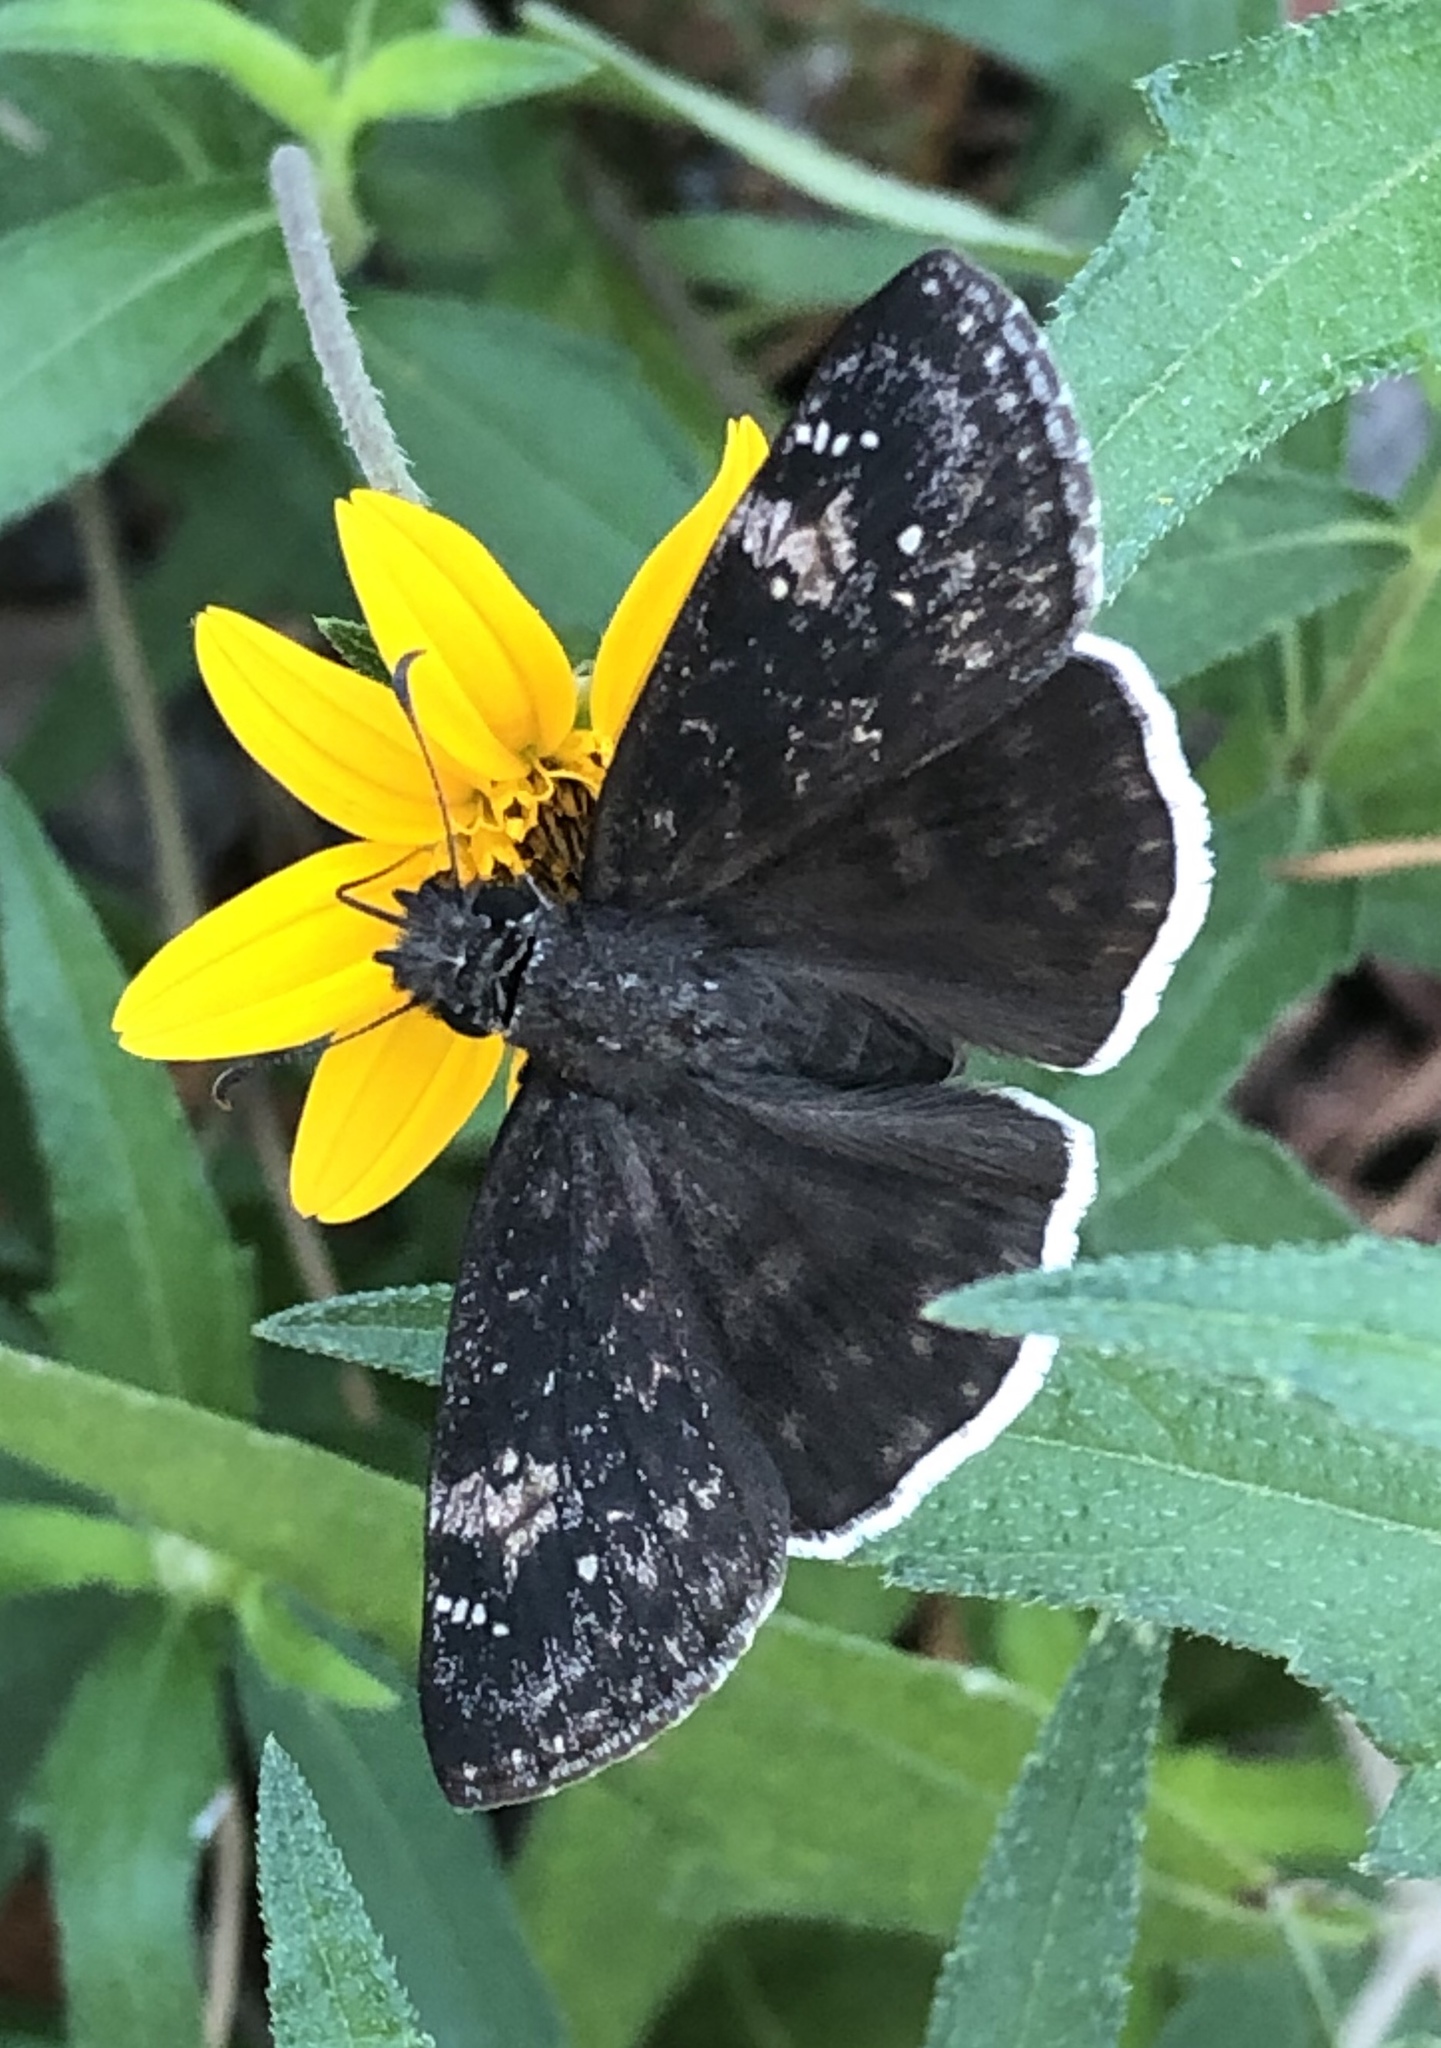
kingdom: Animalia
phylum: Arthropoda
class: Insecta
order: Lepidoptera
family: Hesperiidae
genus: Erynnis
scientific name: Erynnis funeralis
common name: Funereal duskywing
